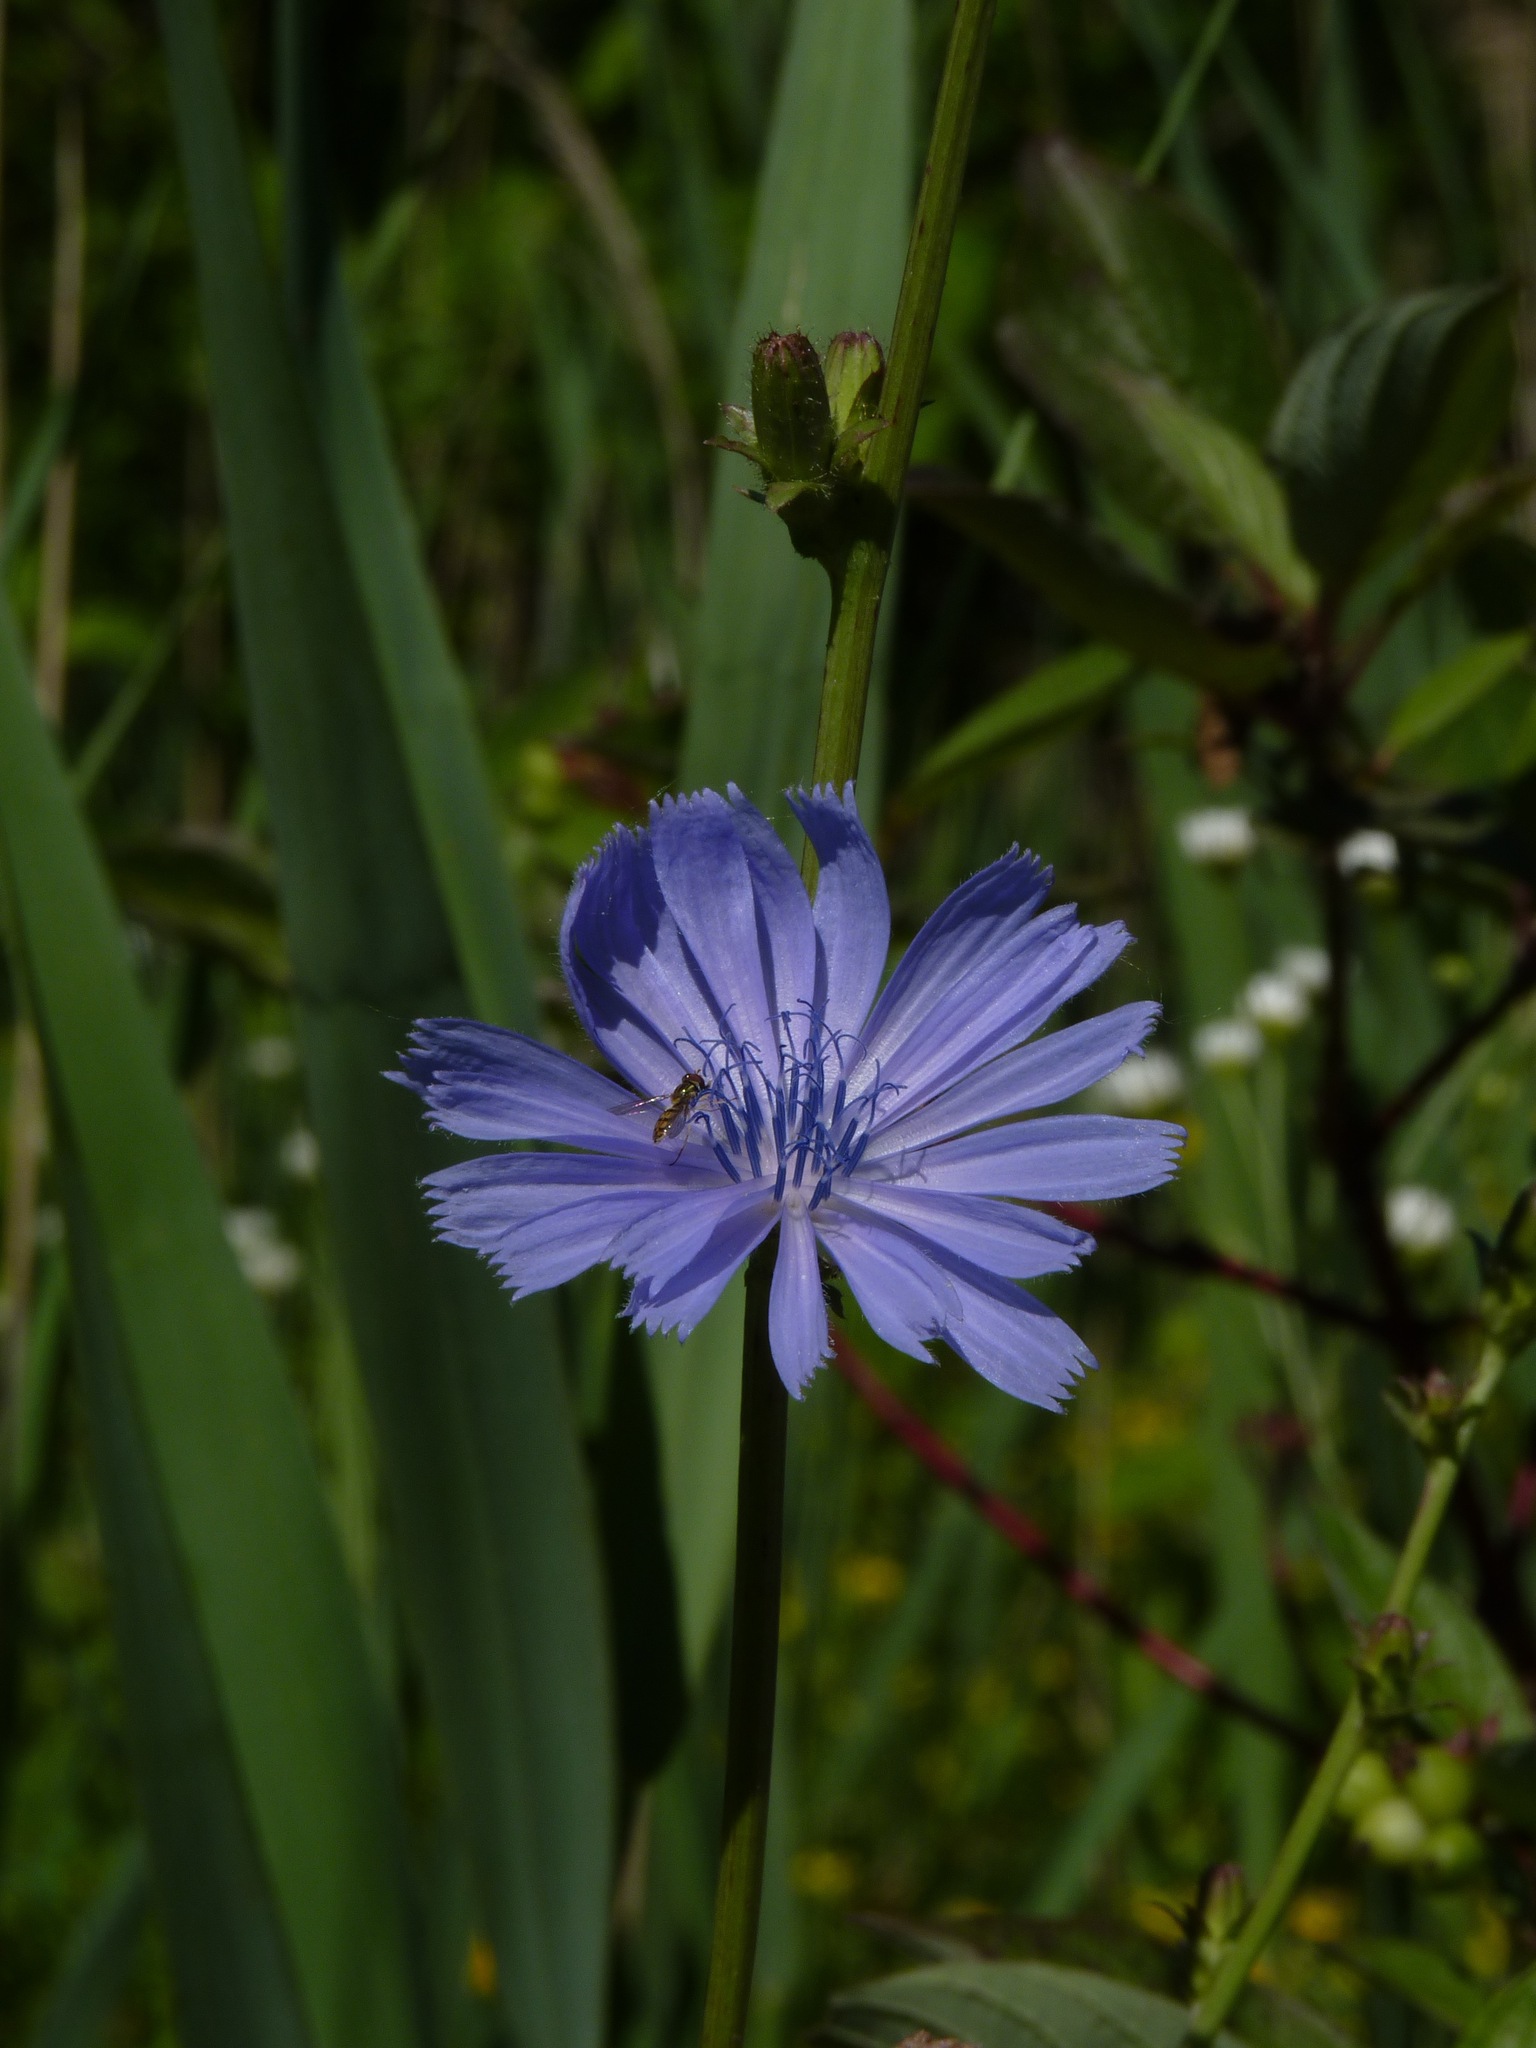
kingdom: Plantae
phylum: Tracheophyta
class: Magnoliopsida
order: Asterales
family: Asteraceae
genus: Cichorium
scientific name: Cichorium intybus
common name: Chicory
